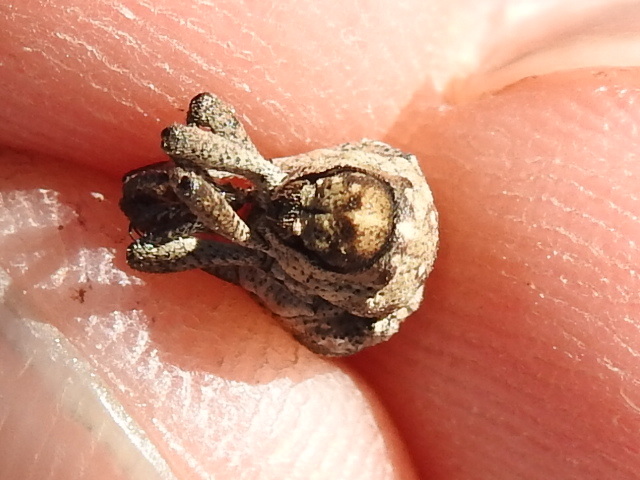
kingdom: Animalia
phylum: Arthropoda
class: Insecta
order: Coleoptera
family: Curculionidae
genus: Thecesternus
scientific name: Thecesternus maculosus
